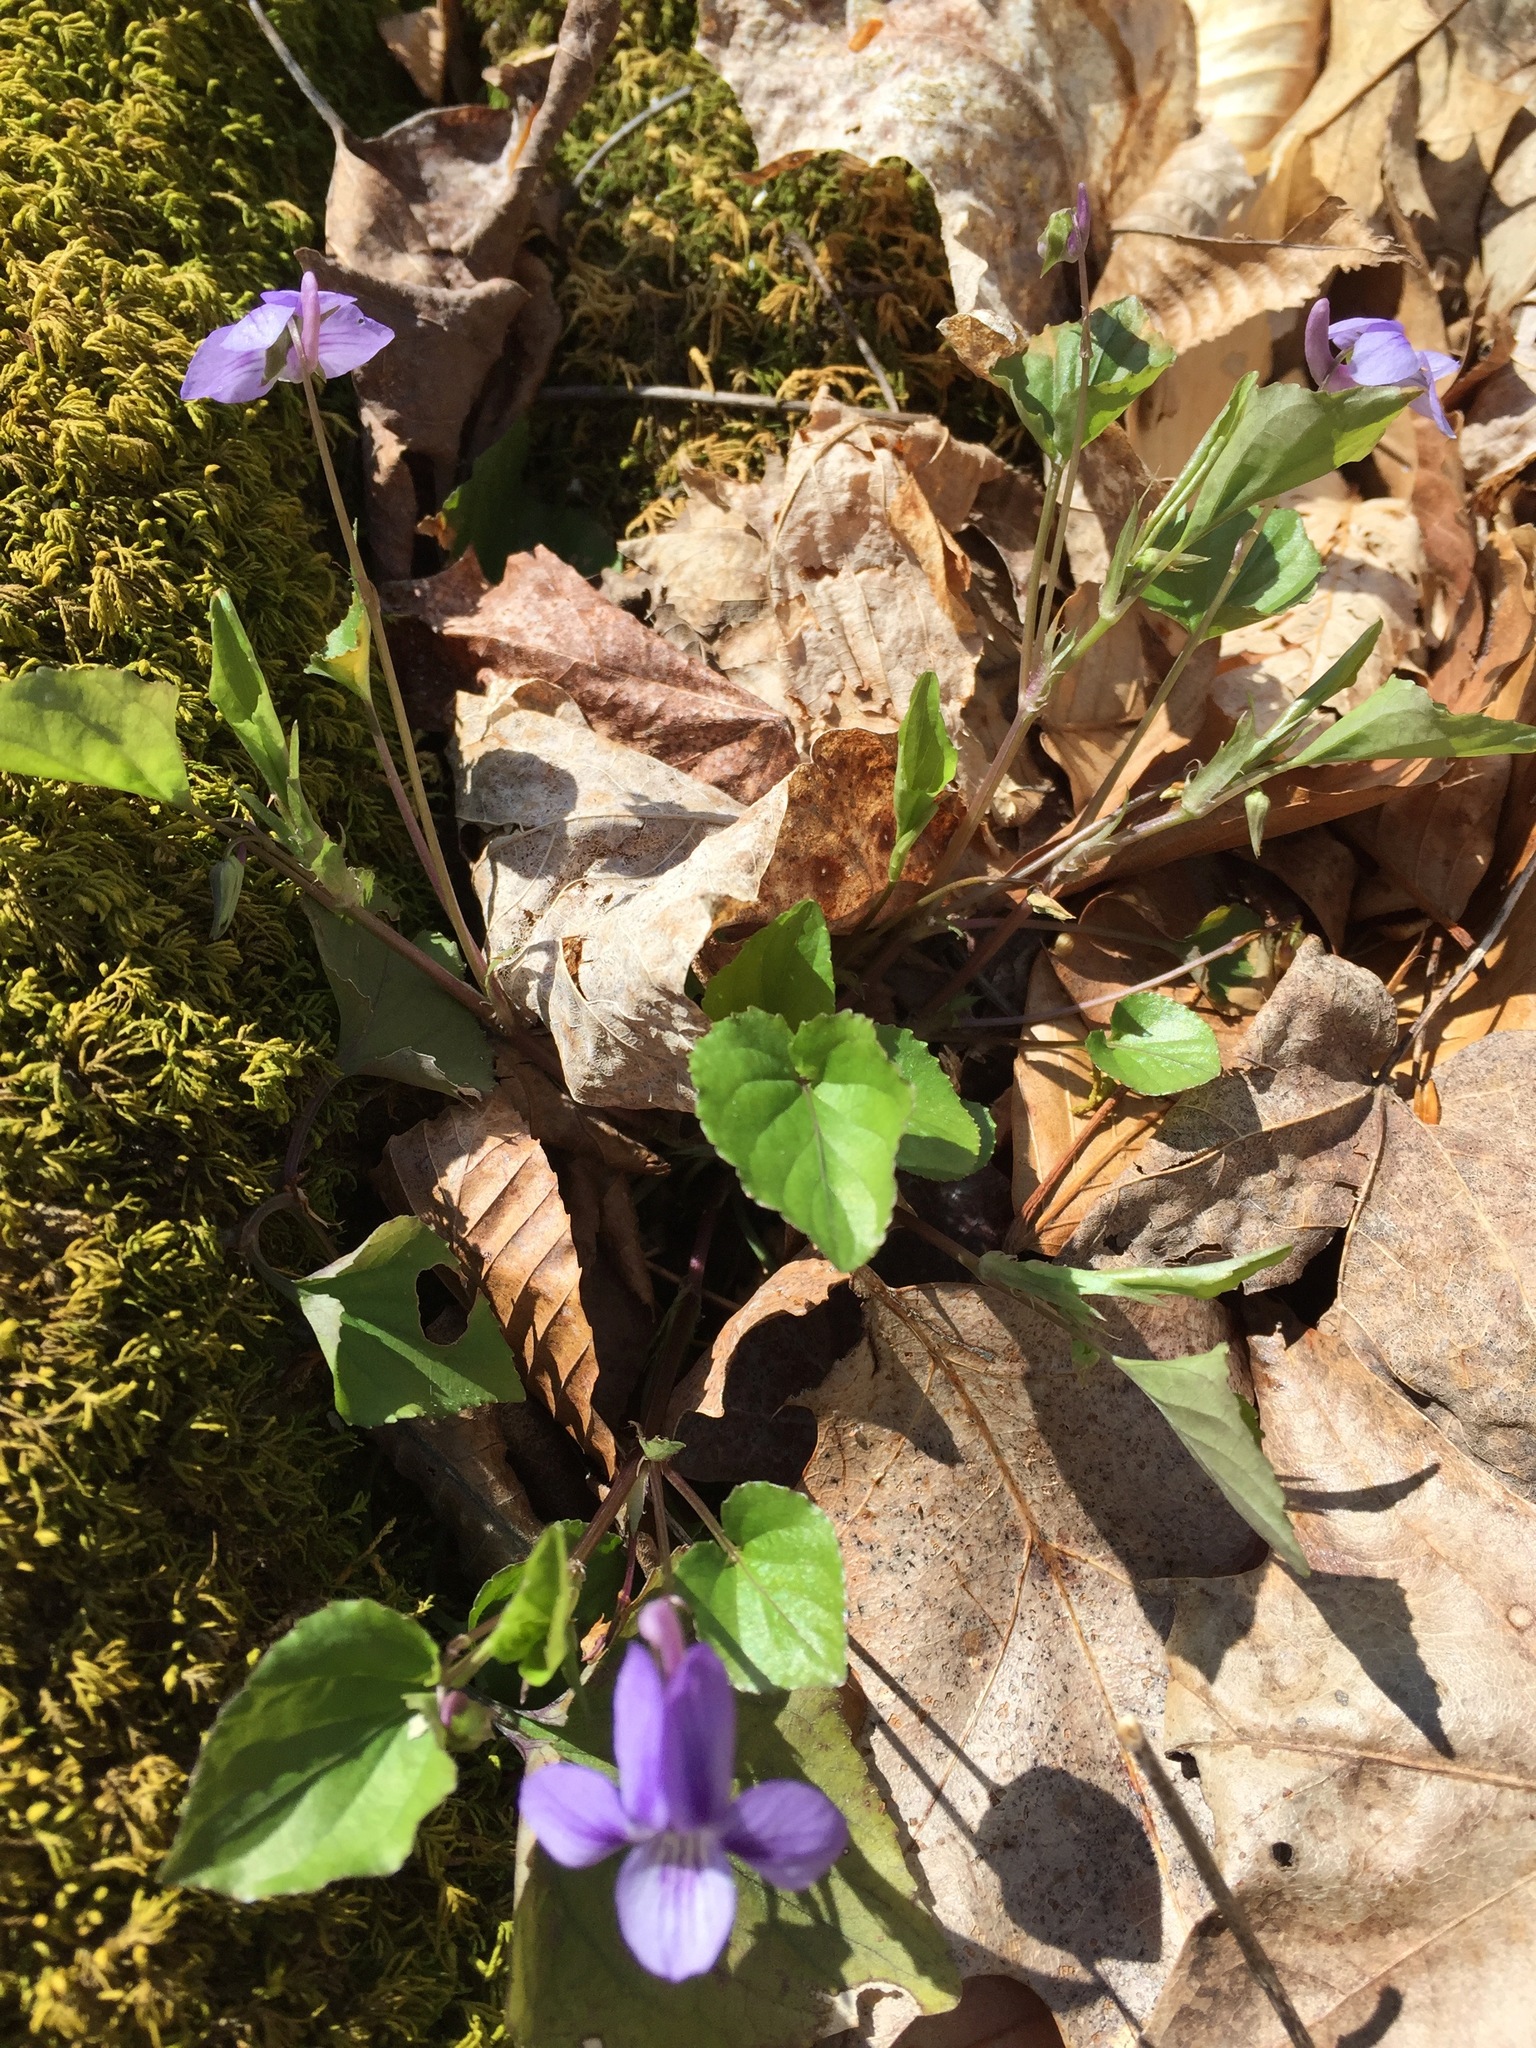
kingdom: Plantae
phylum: Tracheophyta
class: Magnoliopsida
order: Malpighiales
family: Violaceae
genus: Viola
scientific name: Viola rostrata
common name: Long-spur violet
